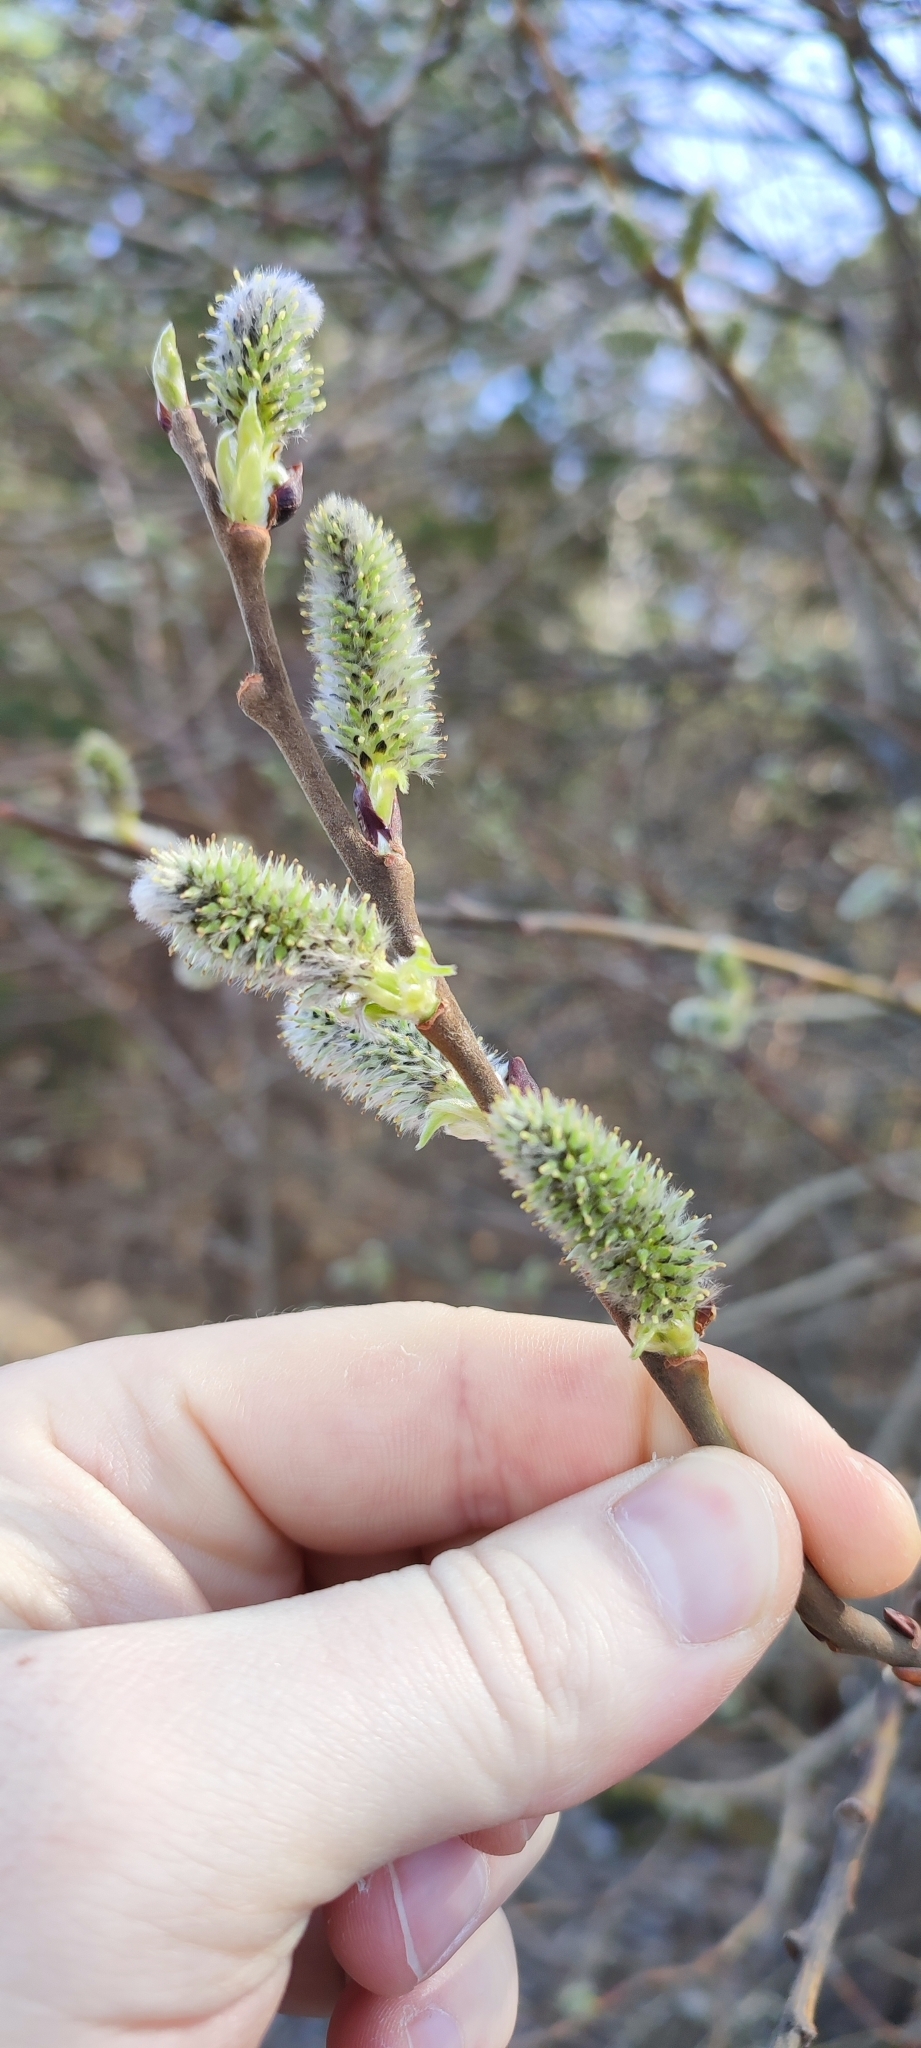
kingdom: Plantae
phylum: Tracheophyta
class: Magnoliopsida
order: Malpighiales
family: Salicaceae
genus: Salix
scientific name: Salix caprea
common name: Goat willow
